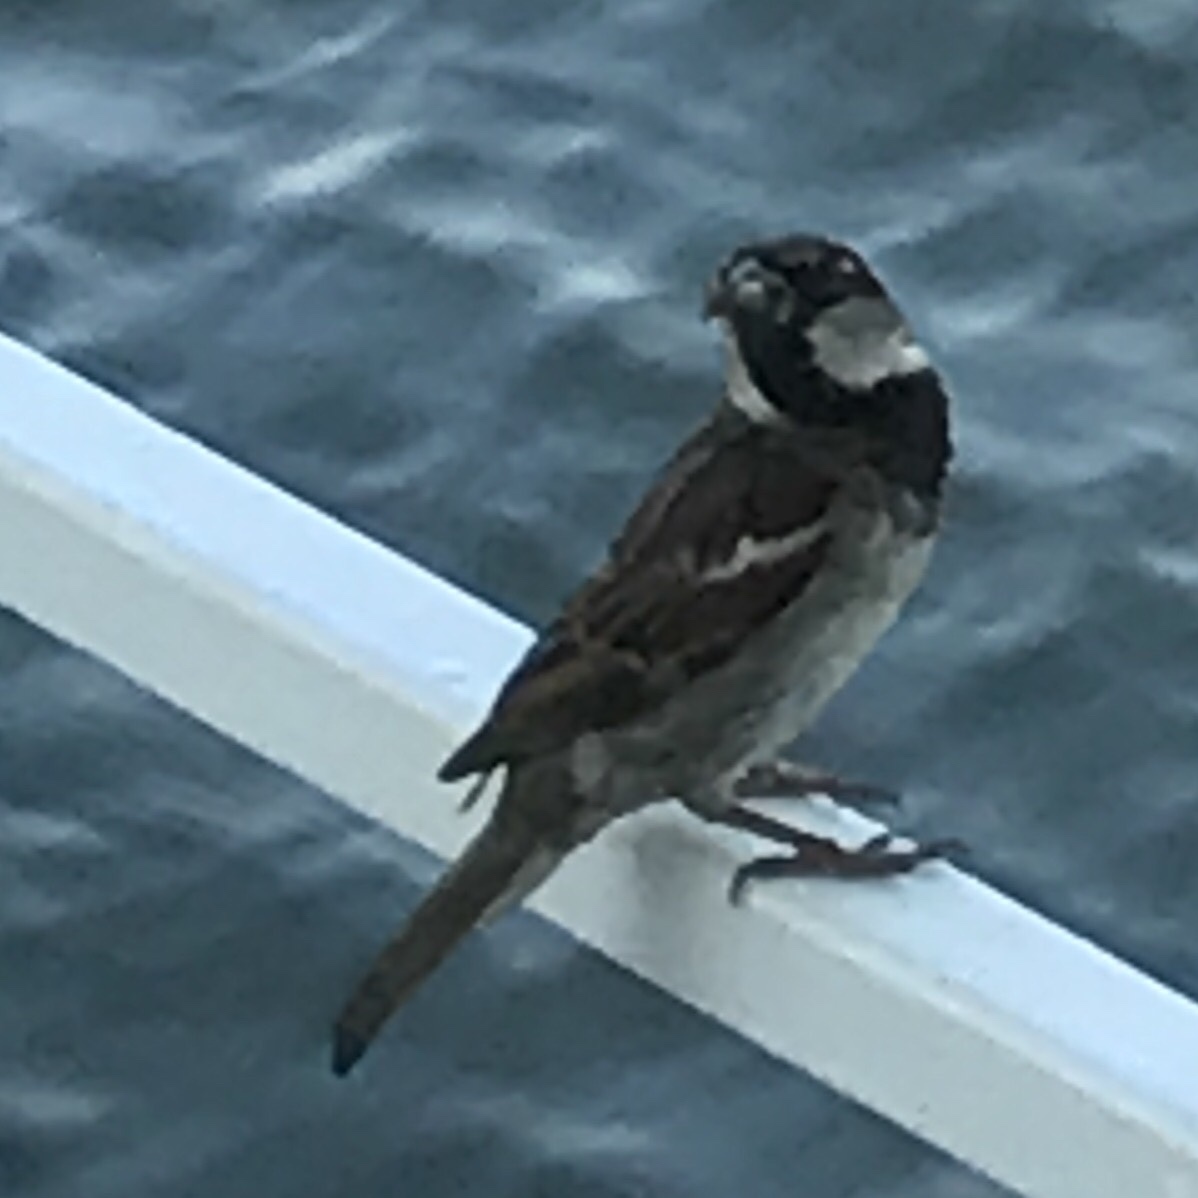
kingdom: Animalia
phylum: Chordata
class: Aves
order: Passeriformes
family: Passeridae
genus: Passer
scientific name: Passer domesticus
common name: House sparrow
